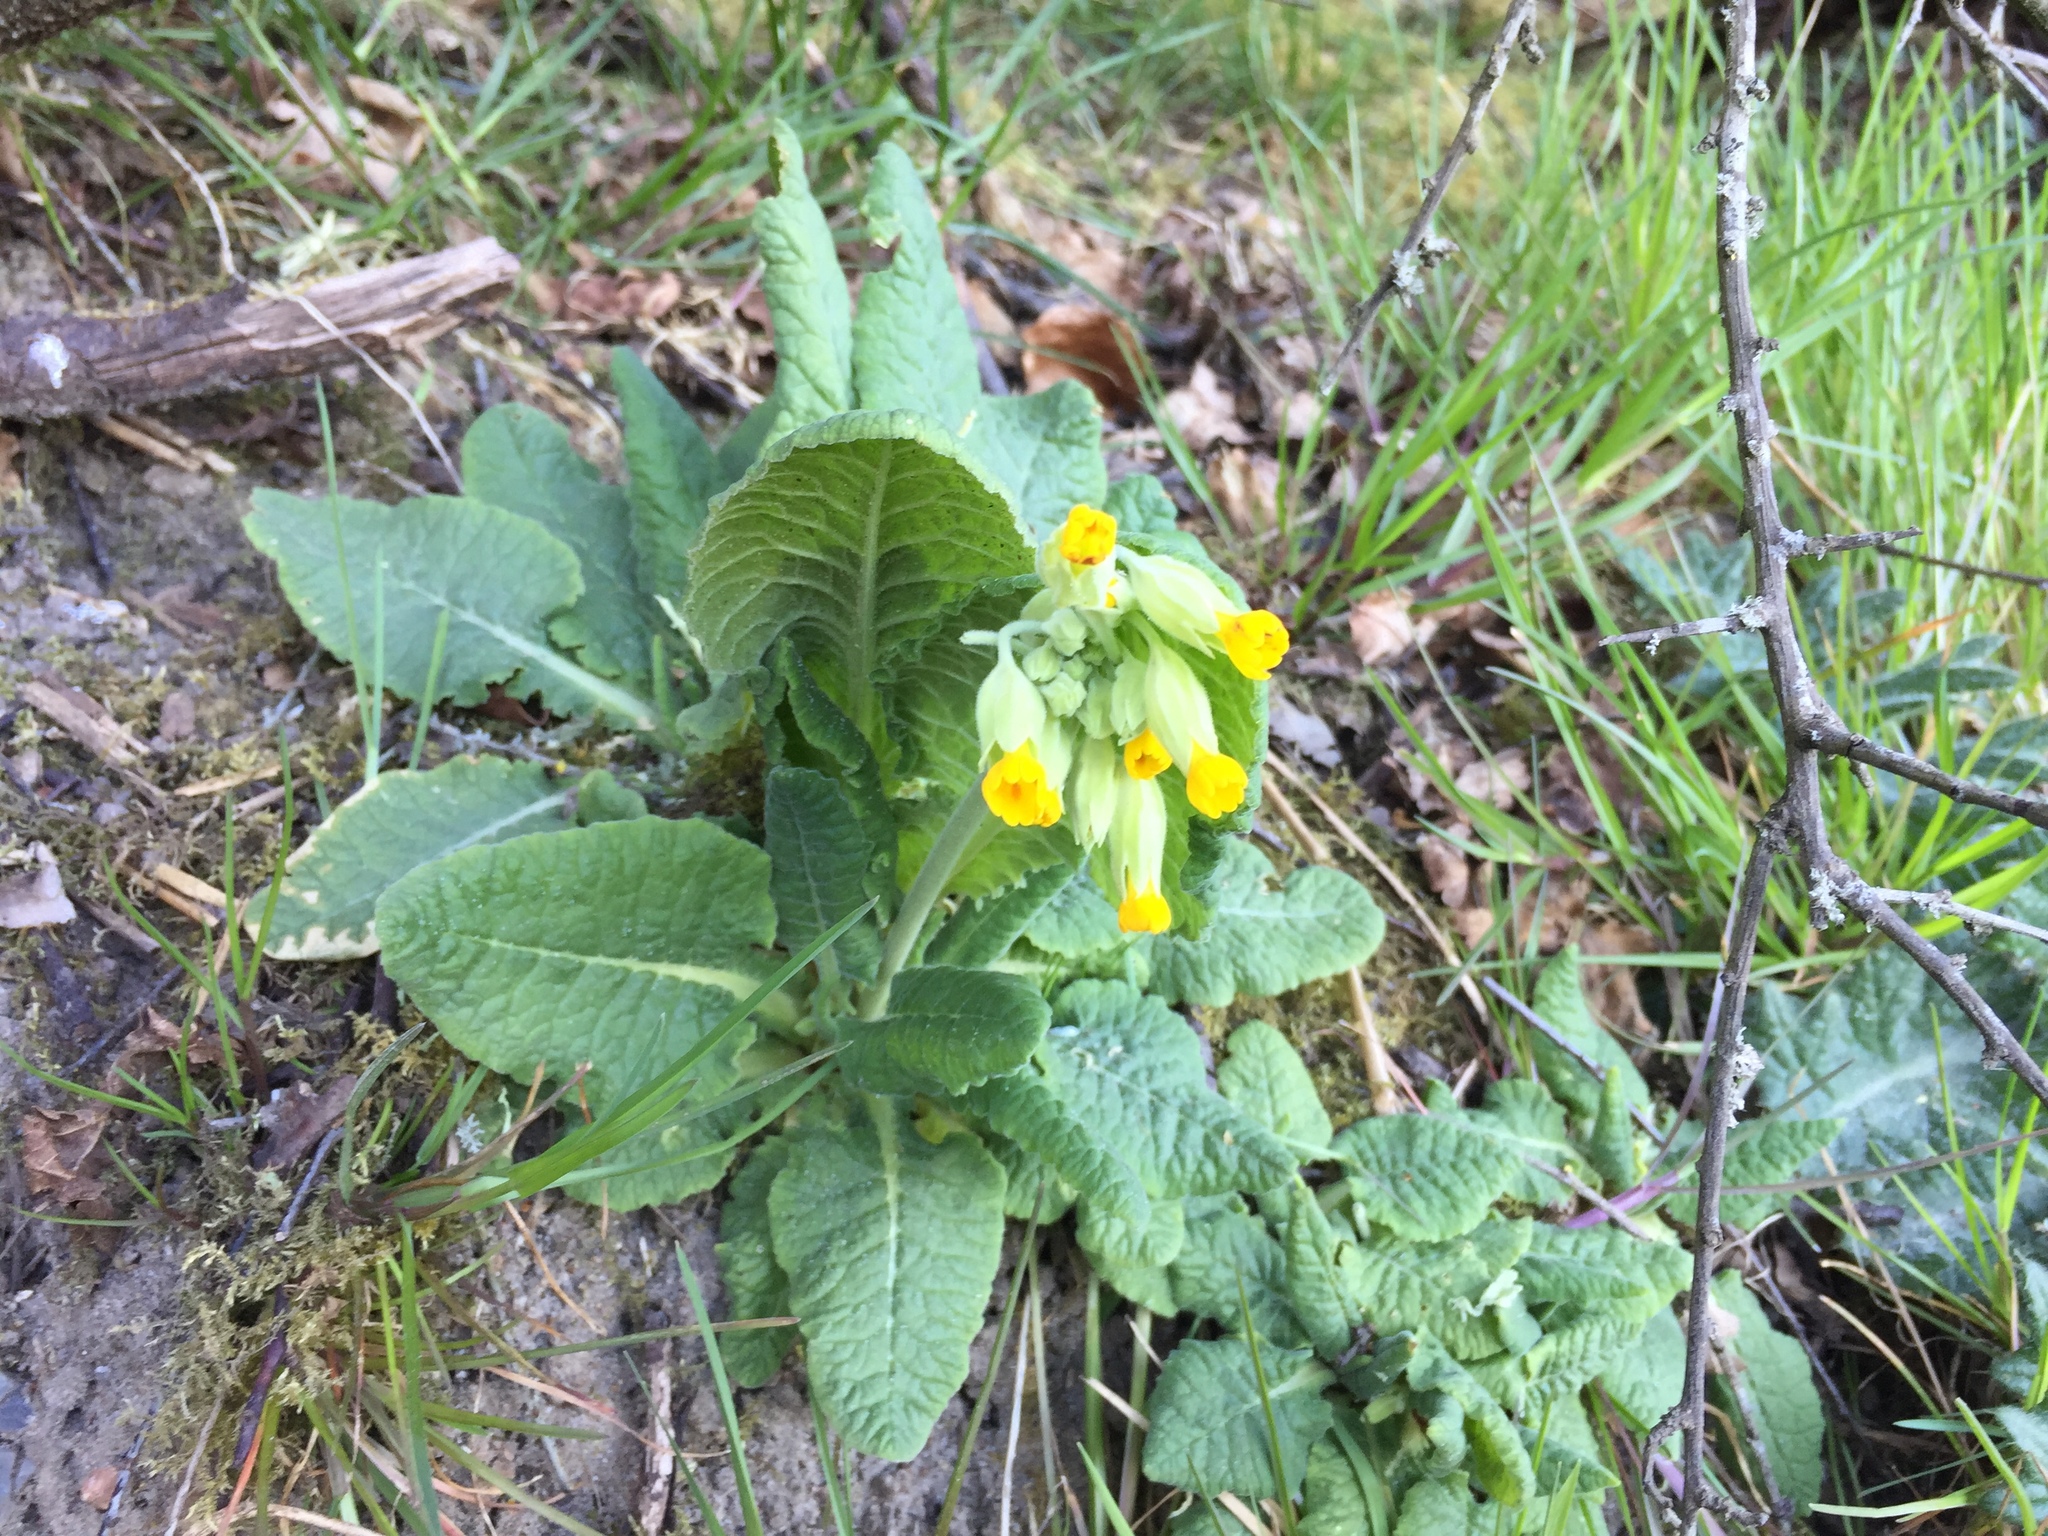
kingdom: Plantae
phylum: Tracheophyta
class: Magnoliopsida
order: Ericales
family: Primulaceae
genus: Primula
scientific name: Primula veris
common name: Cowslip
